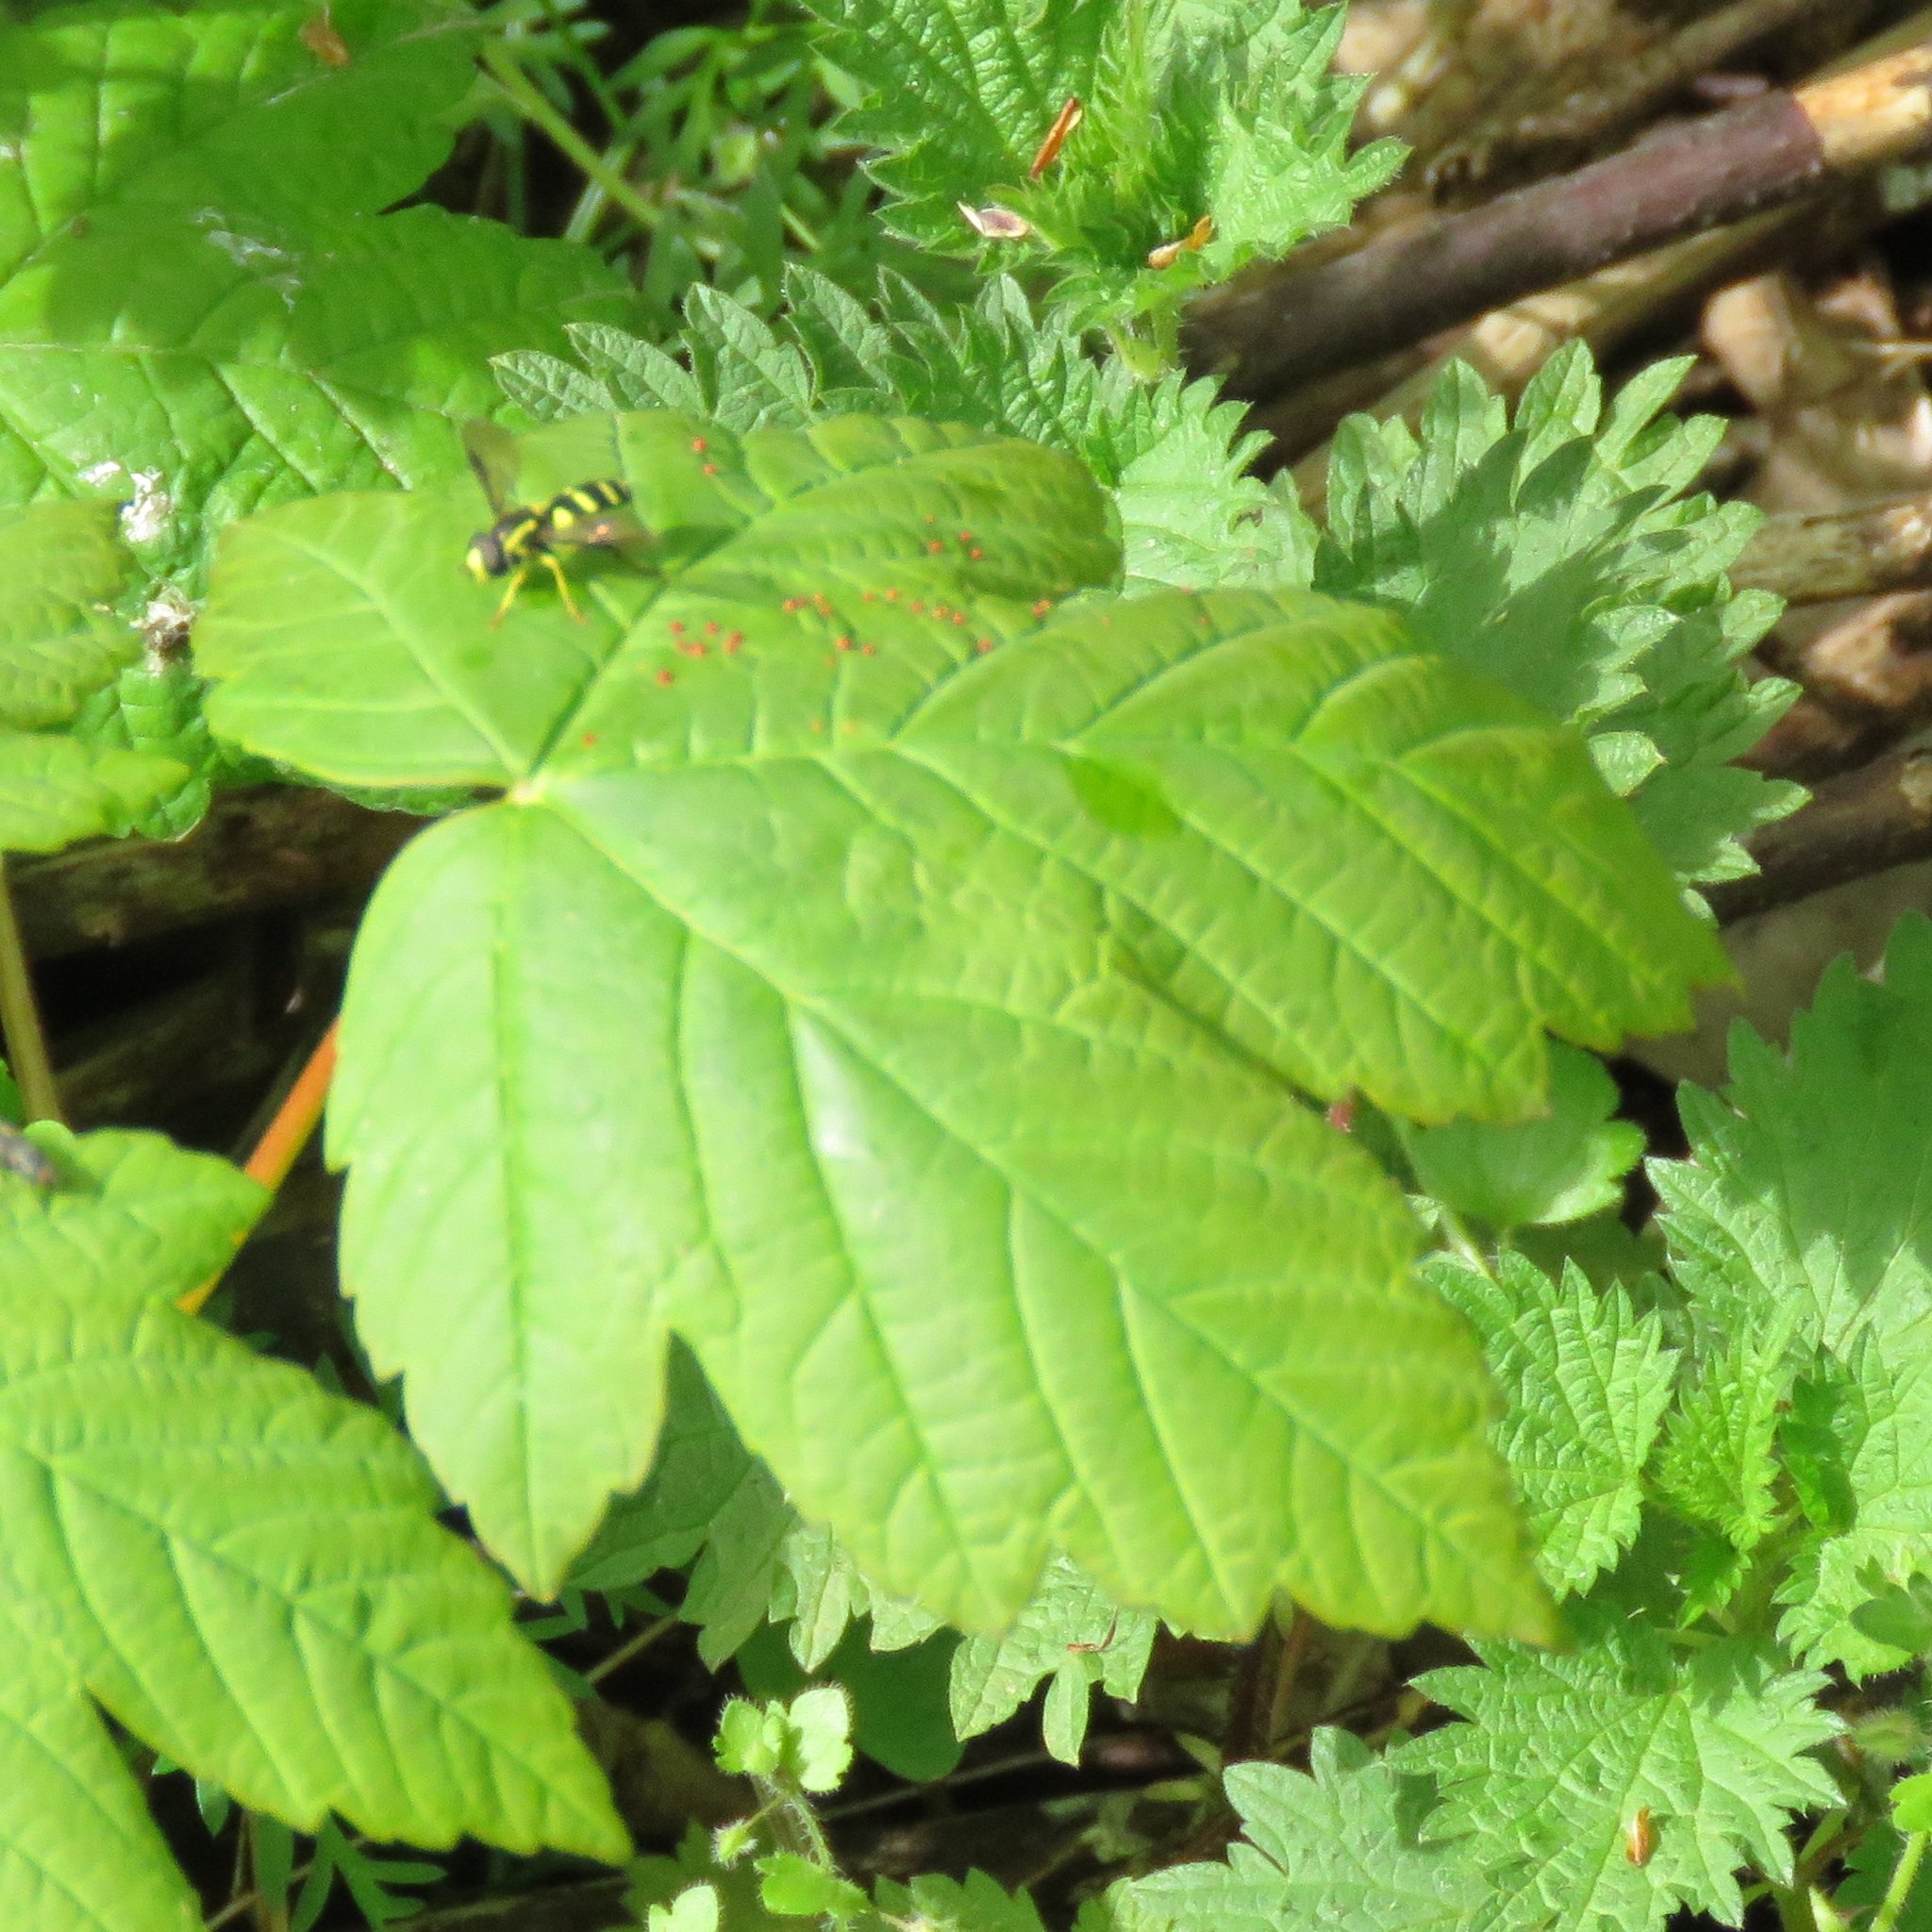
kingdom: Plantae
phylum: Tracheophyta
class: Magnoliopsida
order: Sapindales
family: Sapindaceae
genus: Acer
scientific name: Acer pseudoplatanus
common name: Sycamore
